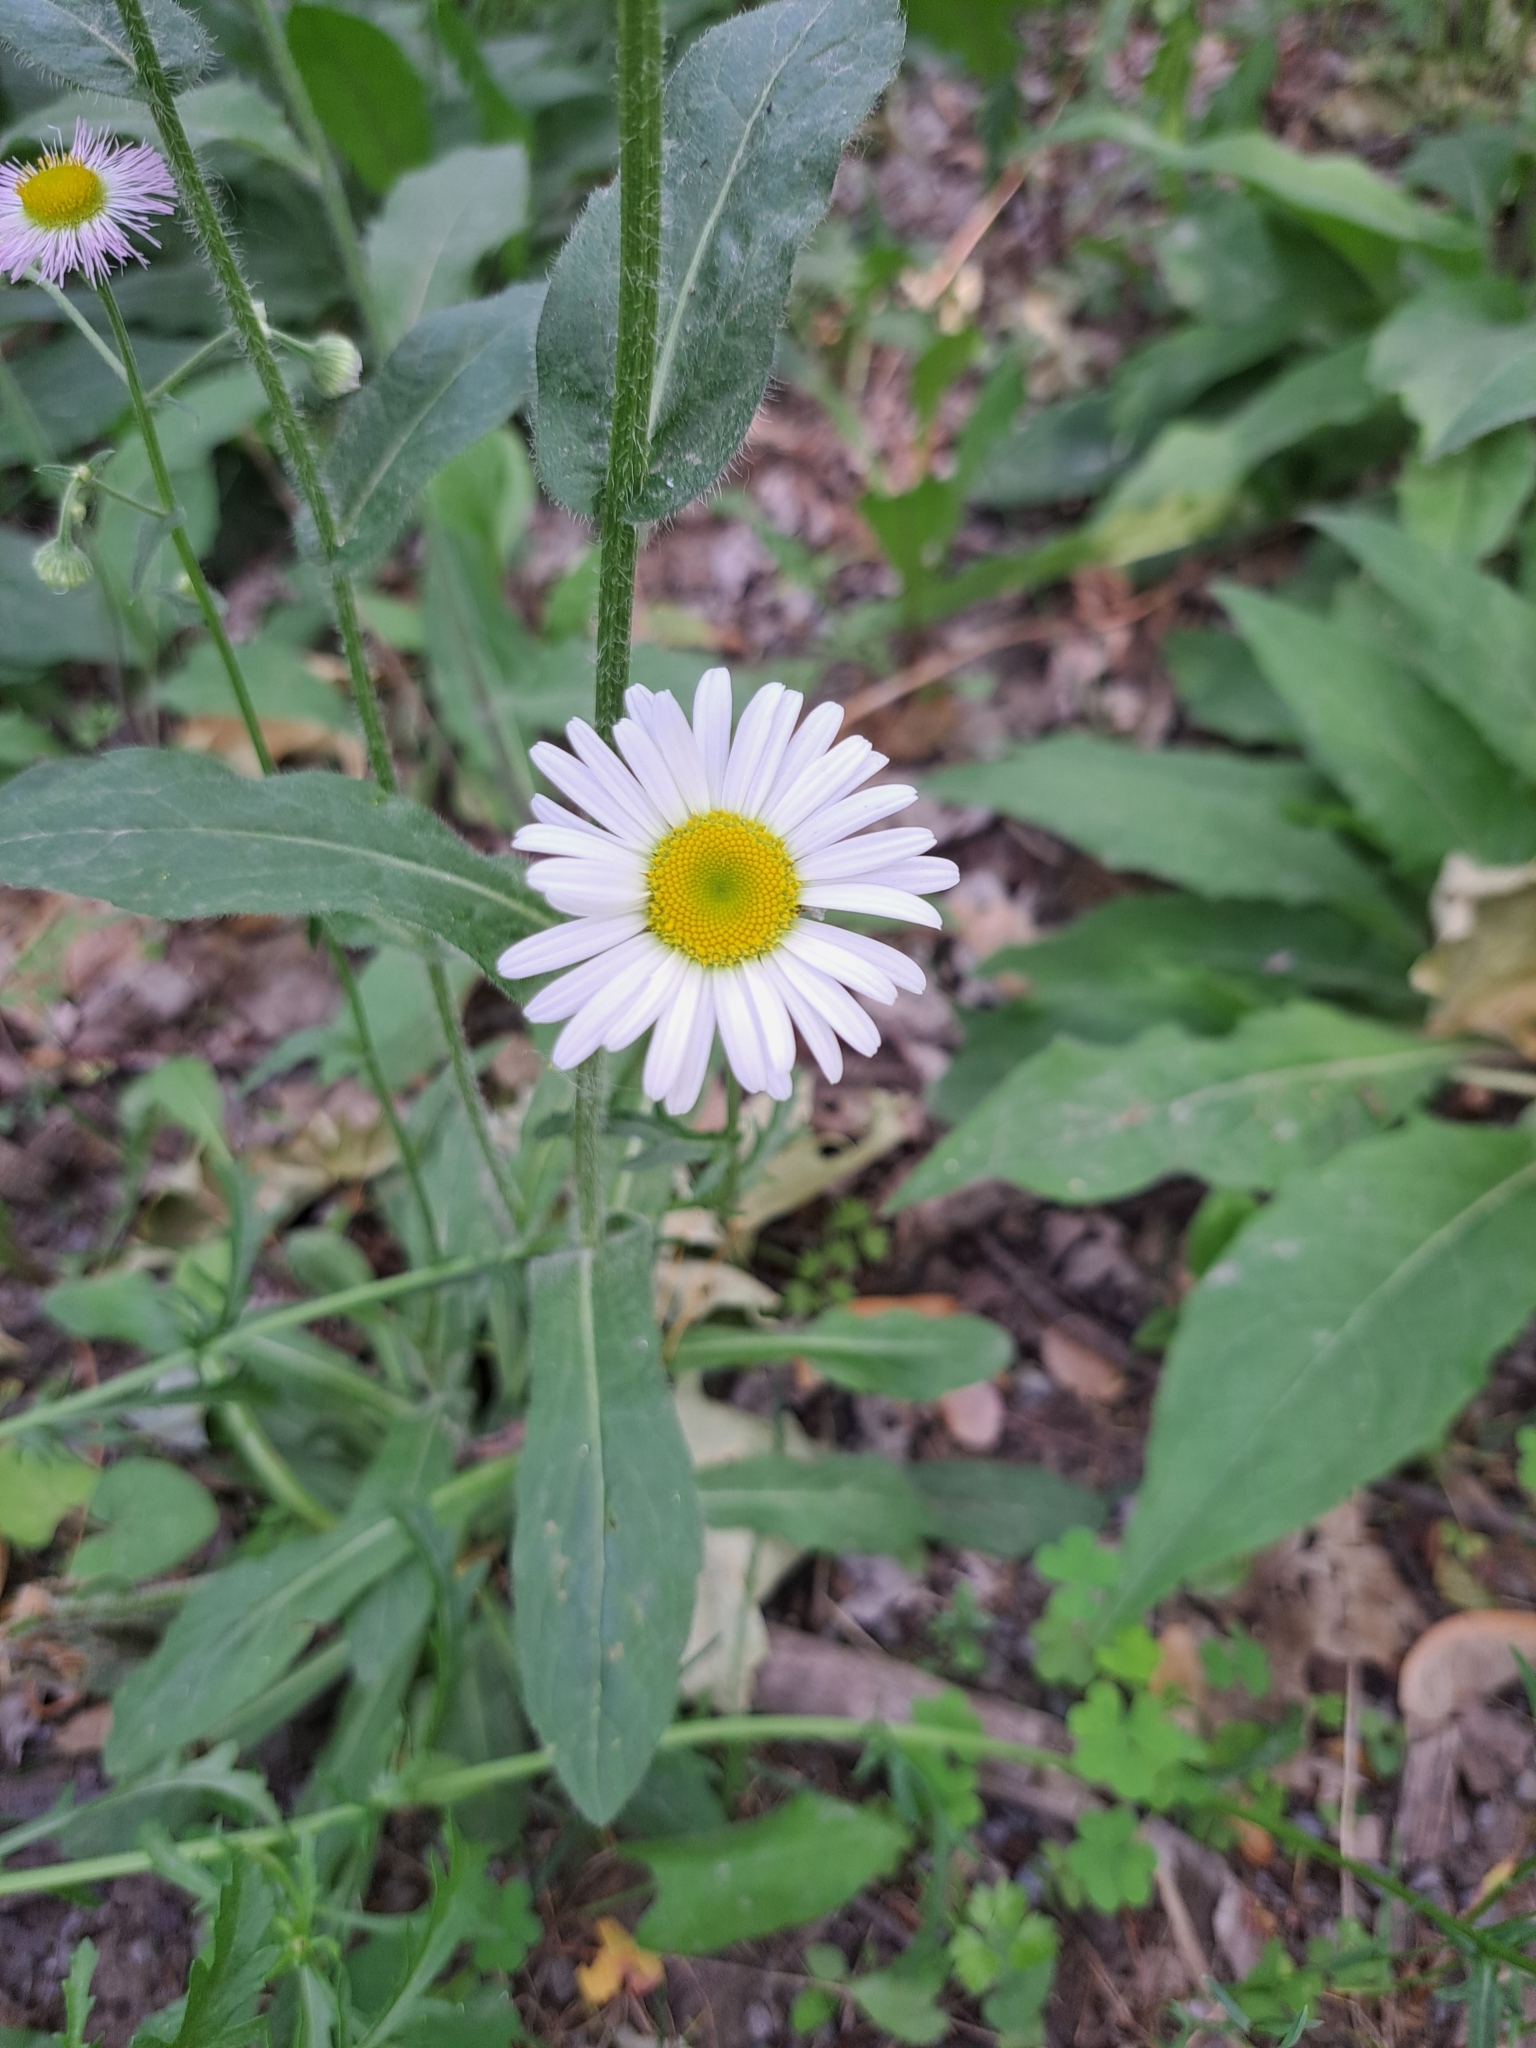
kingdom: Plantae
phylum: Tracheophyta
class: Magnoliopsida
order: Asterales
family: Asteraceae
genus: Leucanthemum
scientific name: Leucanthemum vulgare
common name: Oxeye daisy
